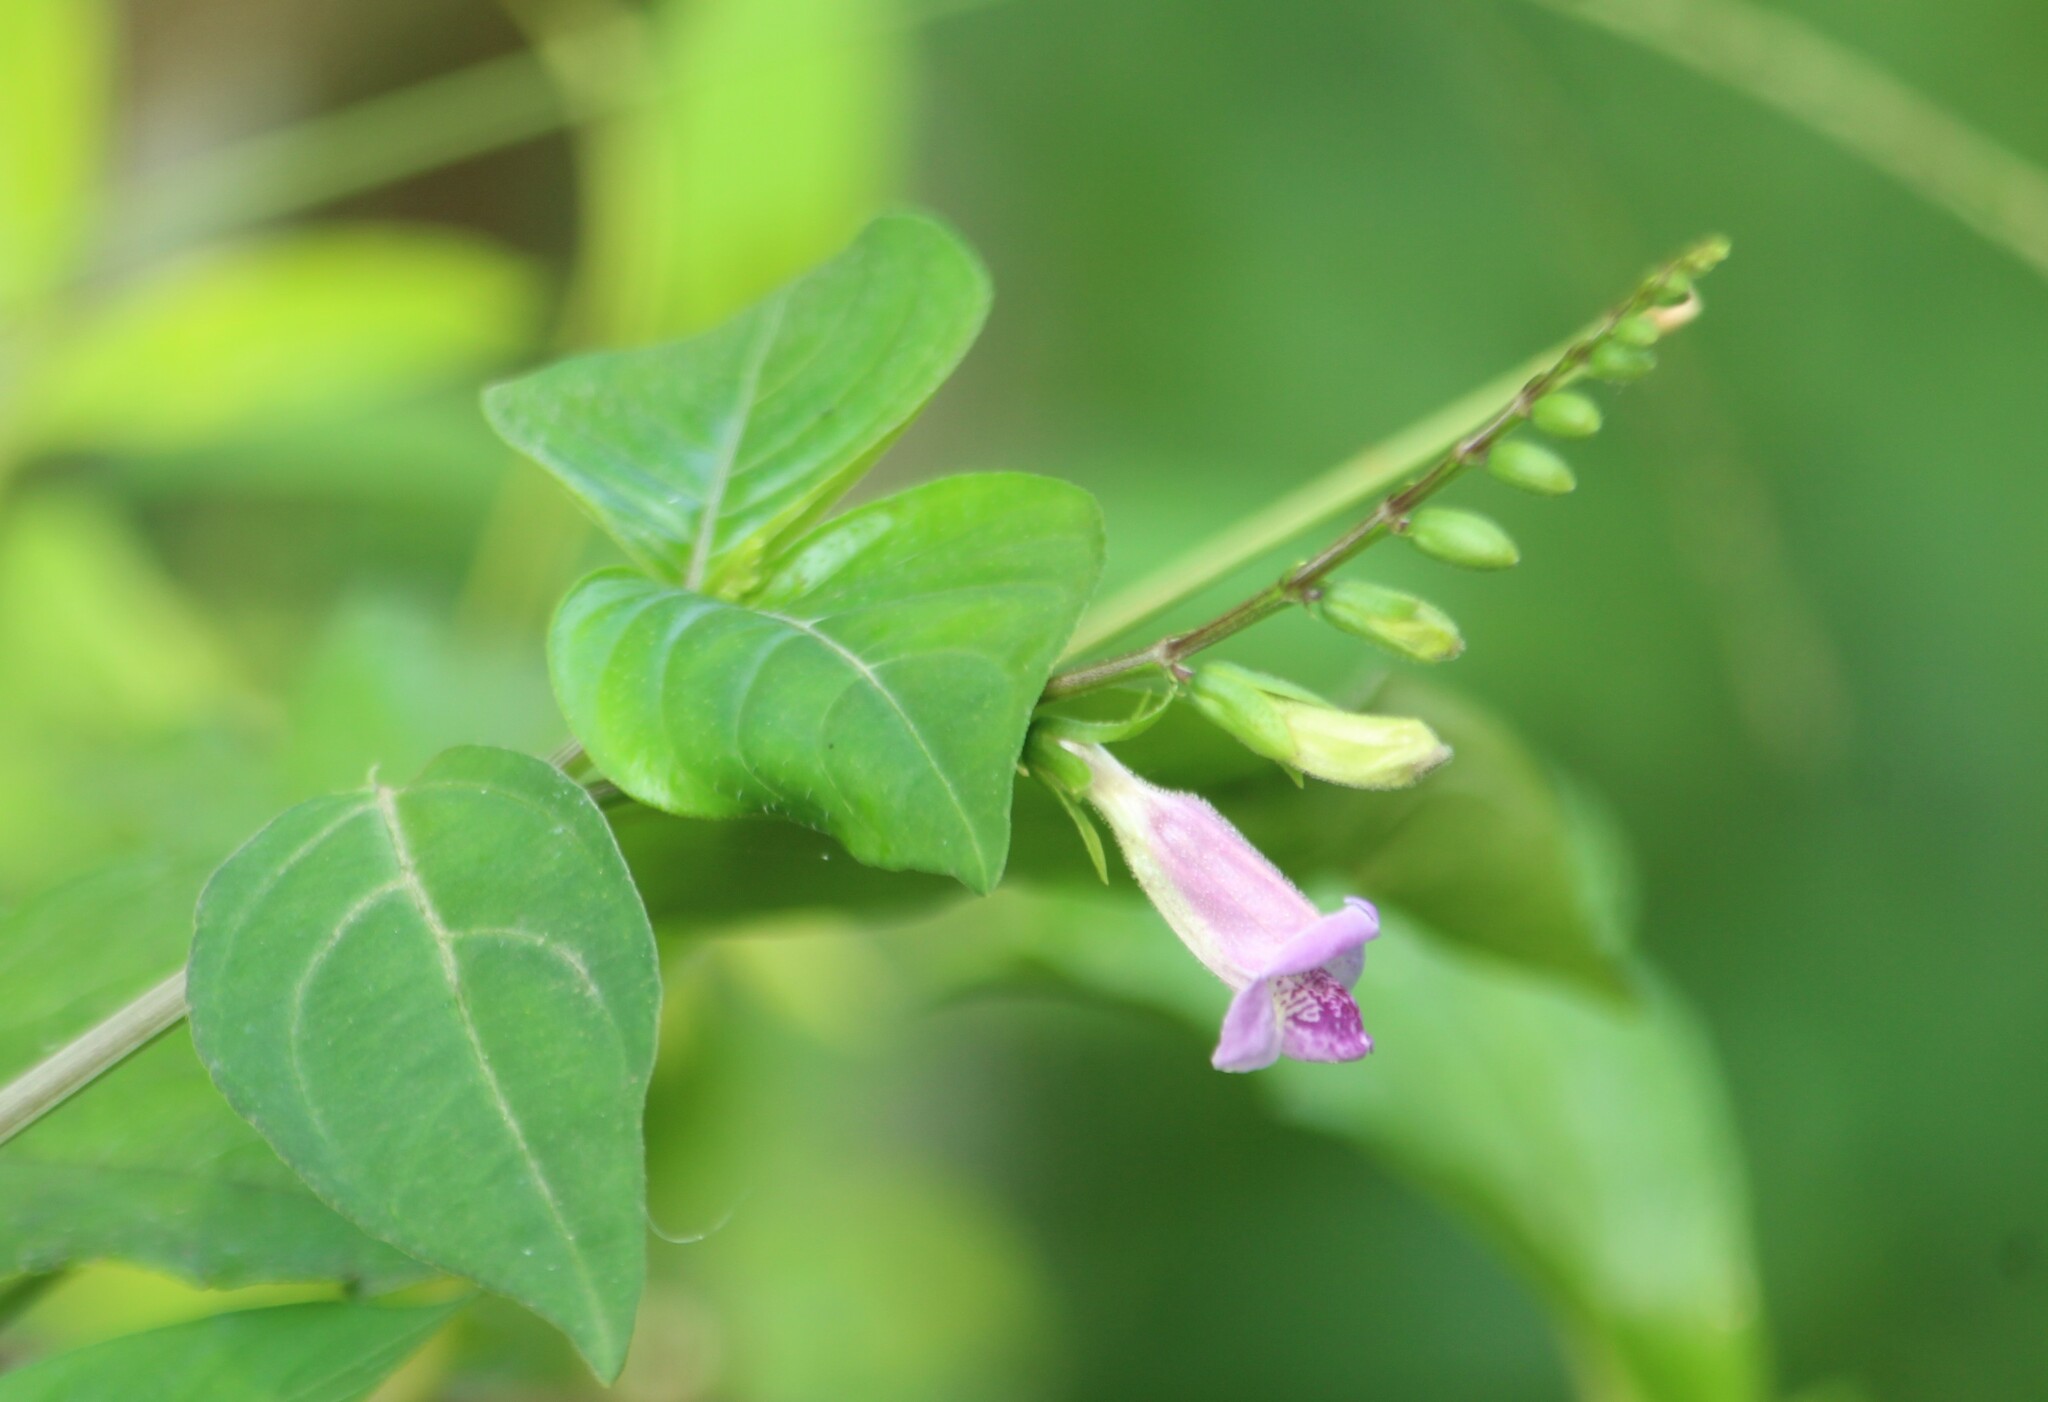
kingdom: Plantae
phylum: Tracheophyta
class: Magnoliopsida
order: Lamiales
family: Acanthaceae
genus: Asystasia
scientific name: Asystasia dalzelliana
